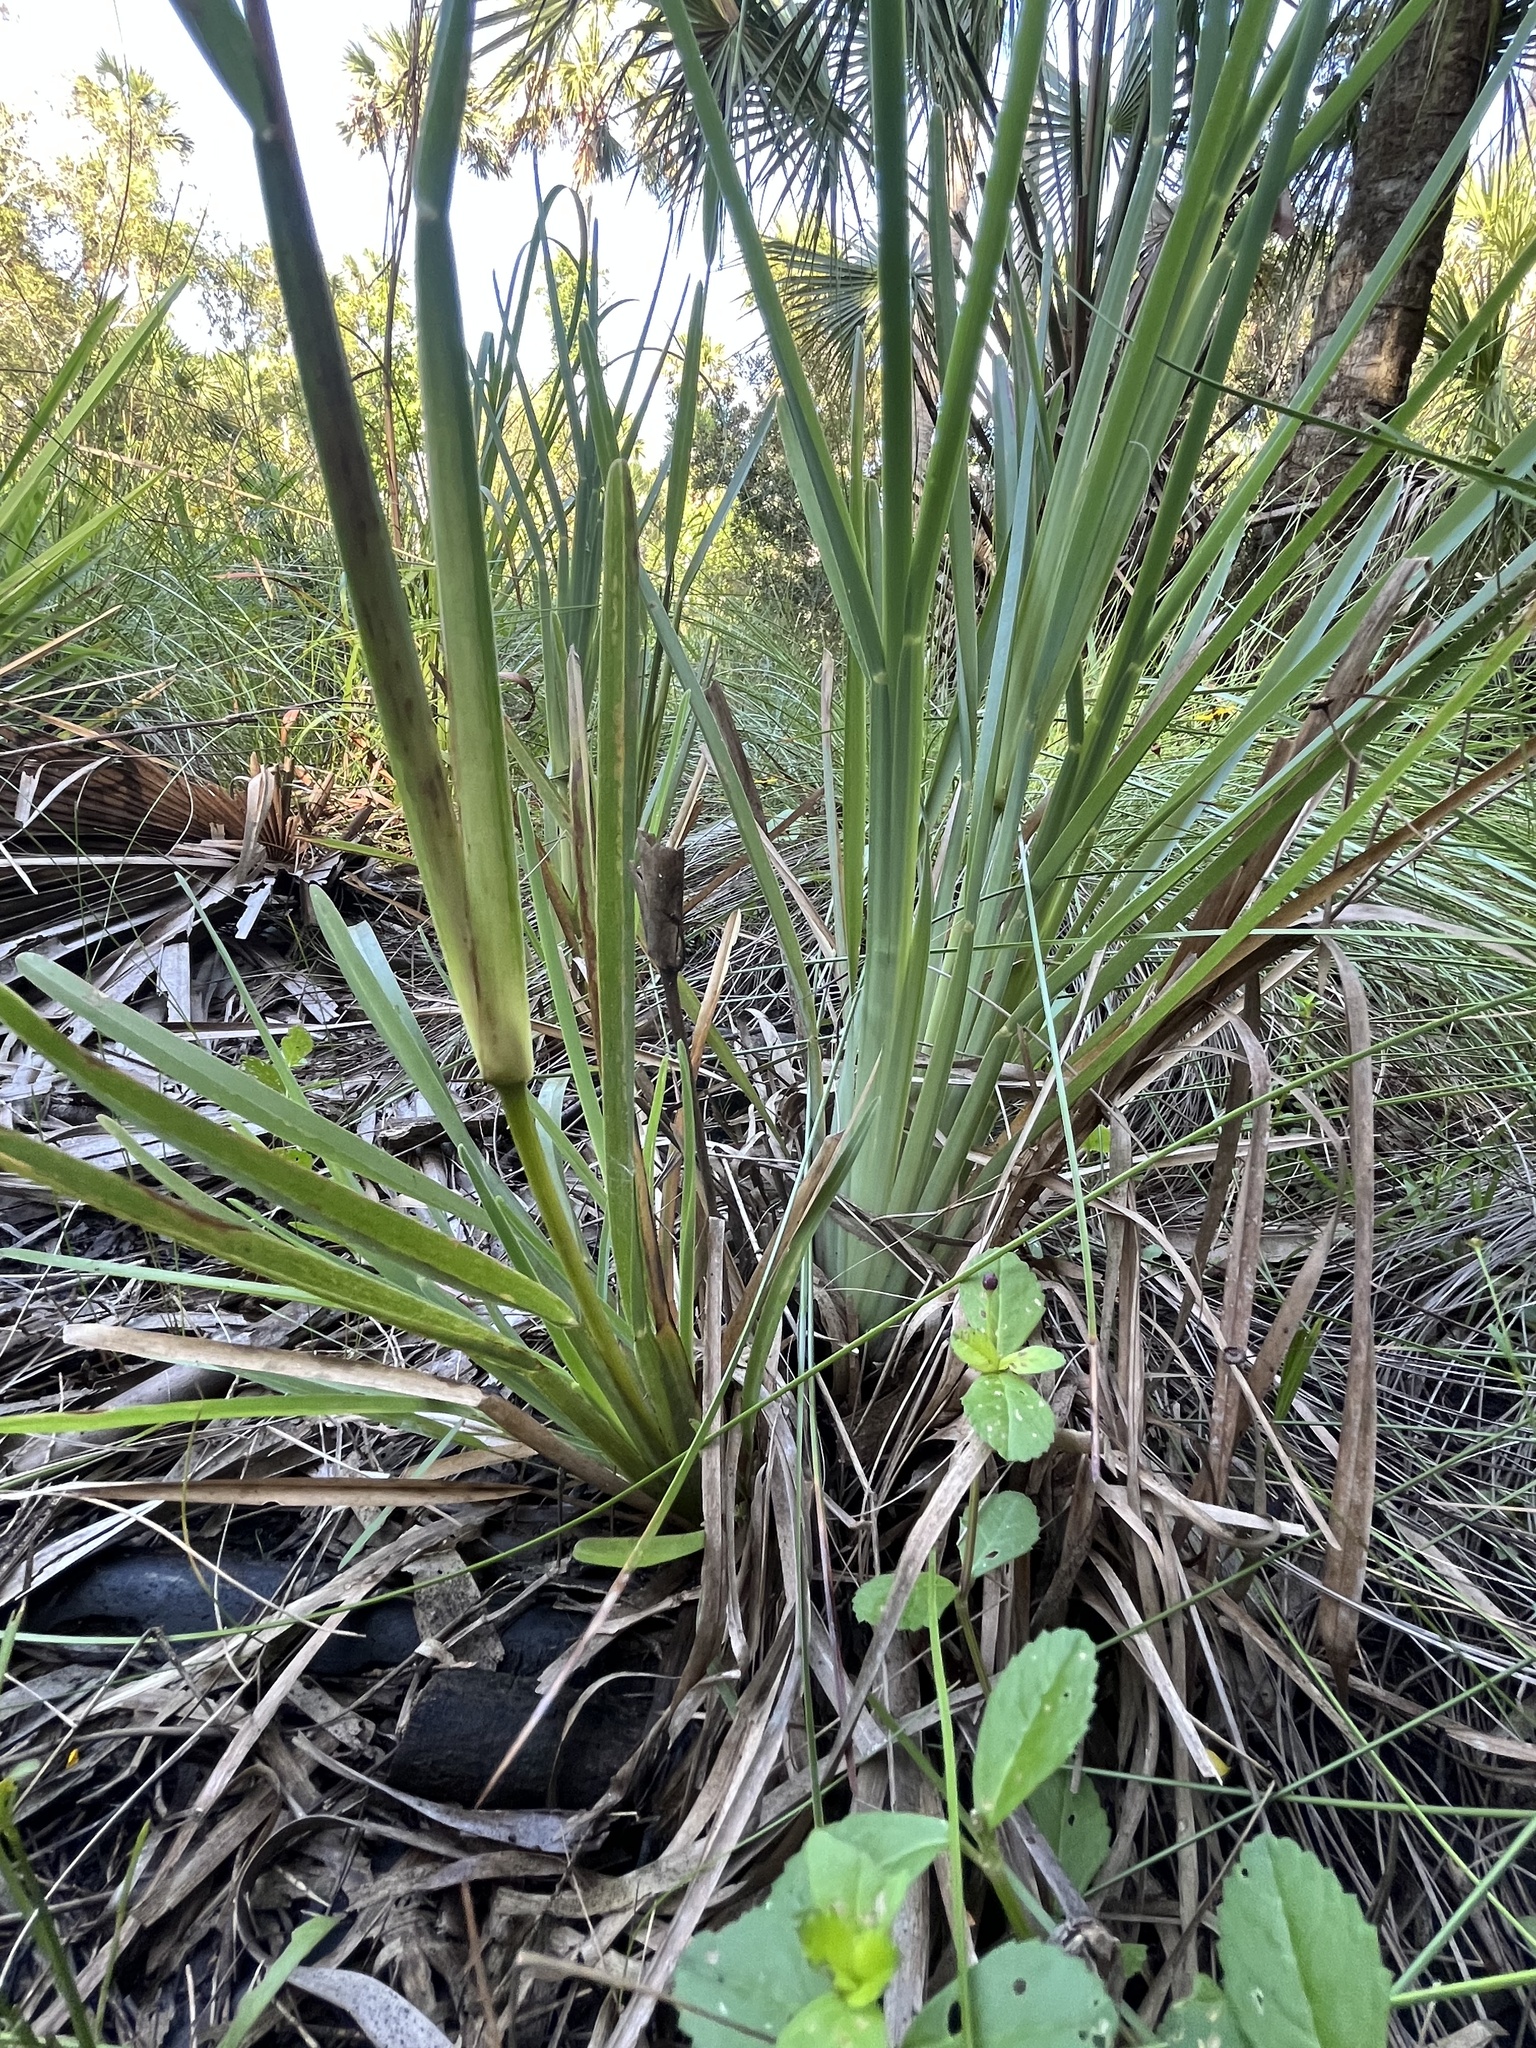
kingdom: Plantae
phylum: Tracheophyta
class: Liliopsida
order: Poales
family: Poaceae
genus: Eustachys
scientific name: Eustachys glauca
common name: Saltmarsh finger grass
